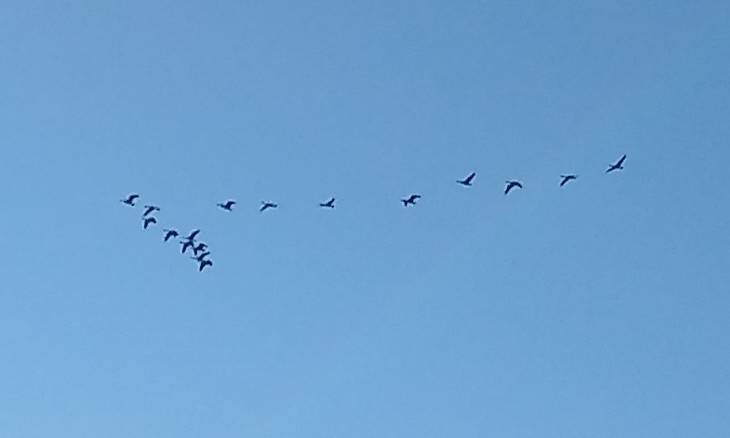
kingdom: Animalia
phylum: Chordata
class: Aves
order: Anseriformes
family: Anatidae
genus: Branta
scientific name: Branta canadensis
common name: Canada goose
